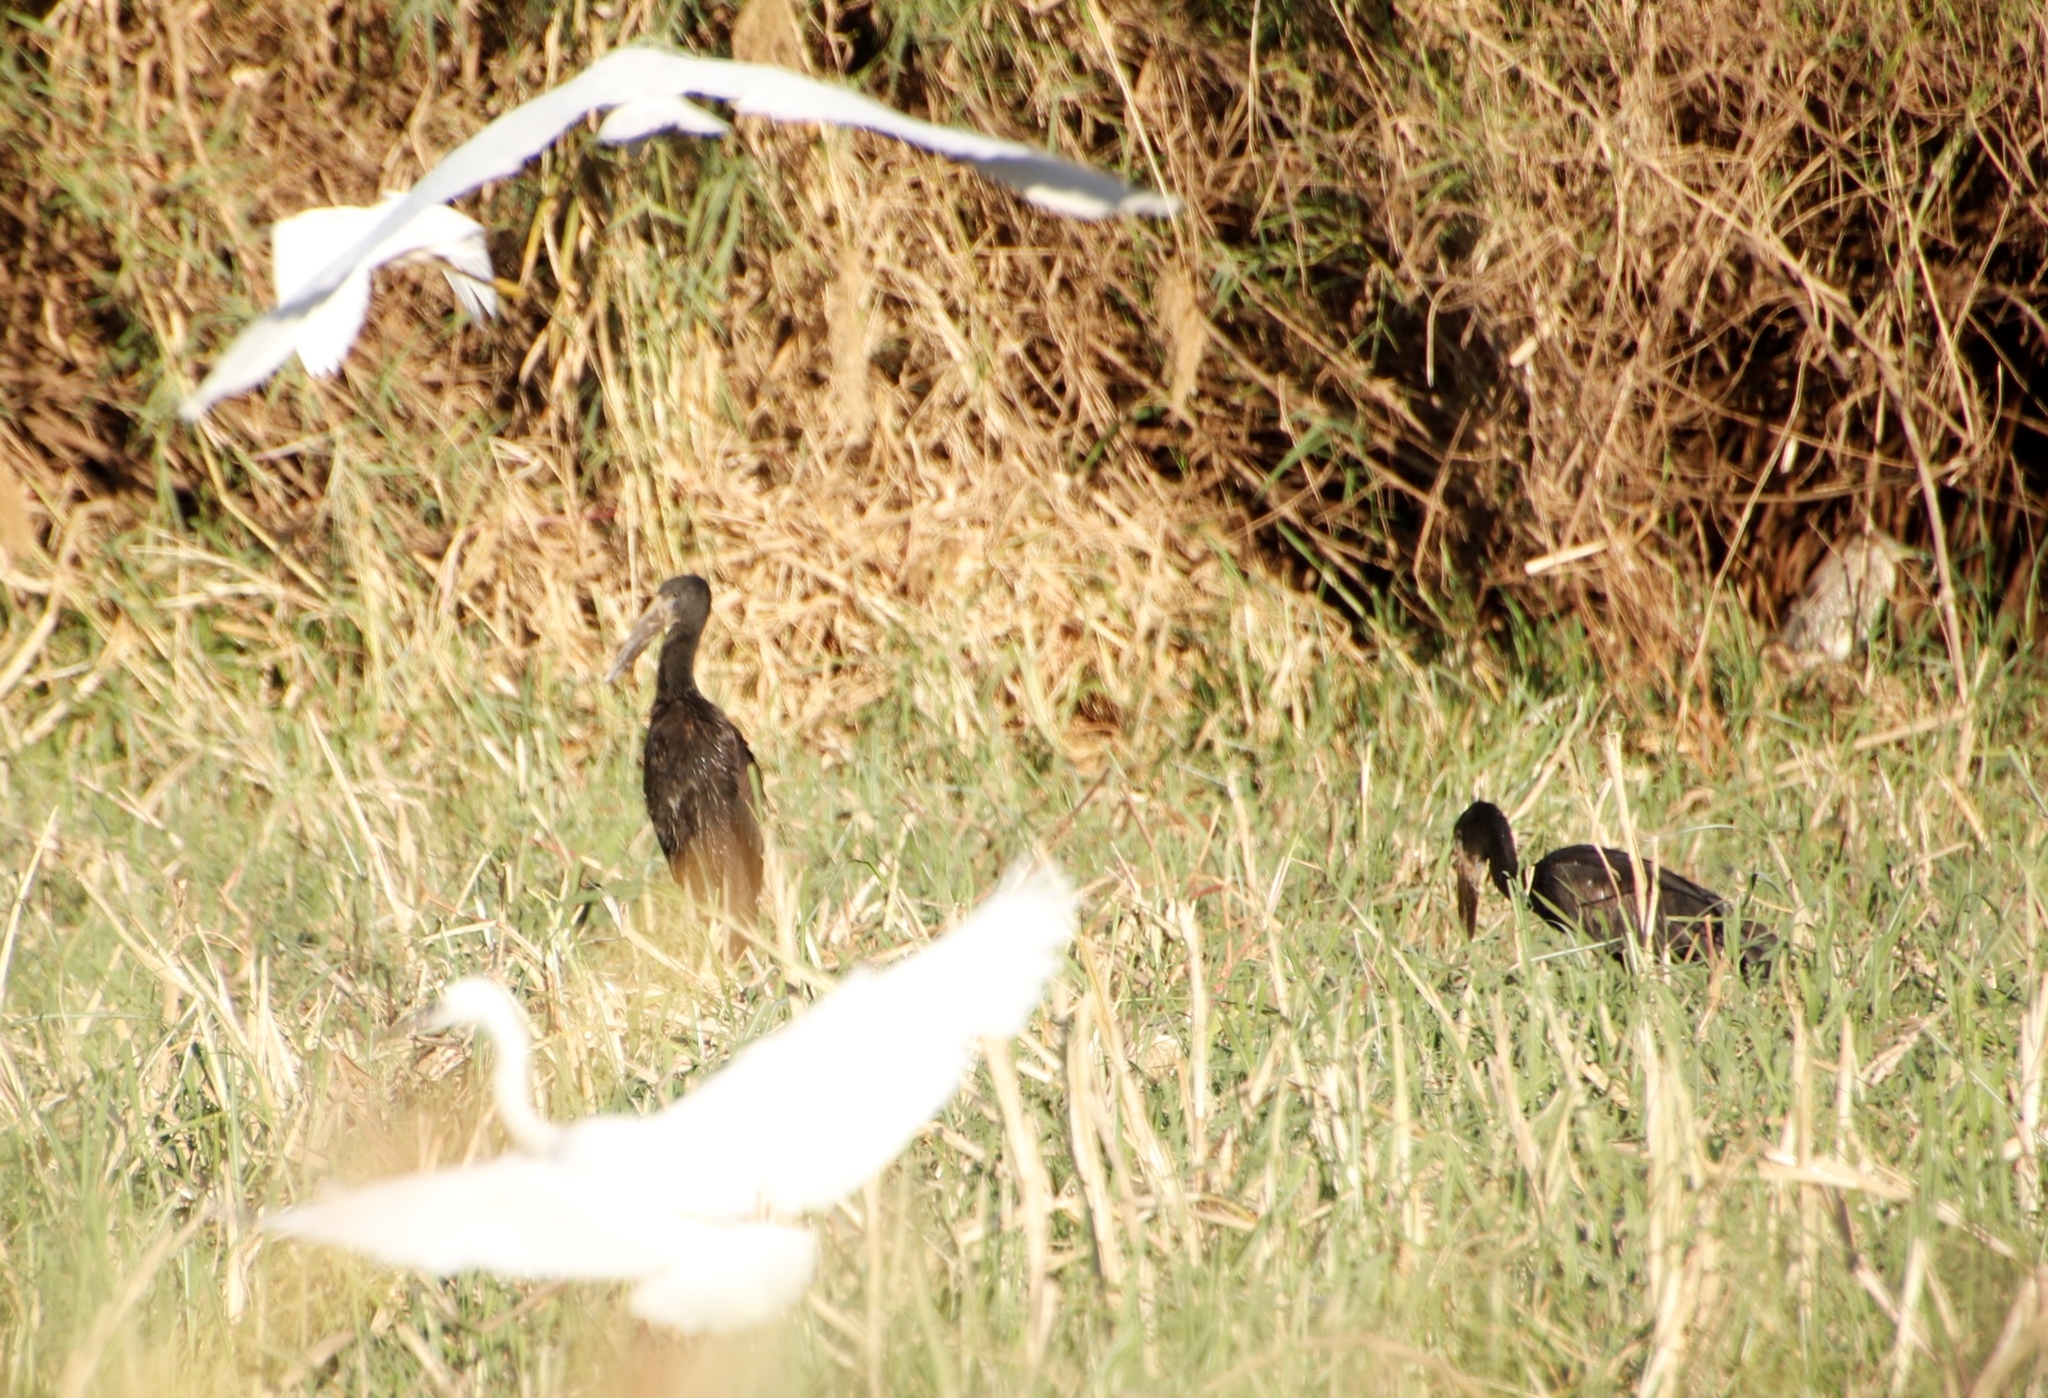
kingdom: Animalia
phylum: Chordata
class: Aves
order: Ciconiiformes
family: Ciconiidae
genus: Anastomus
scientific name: Anastomus lamelligerus
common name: African openbill
